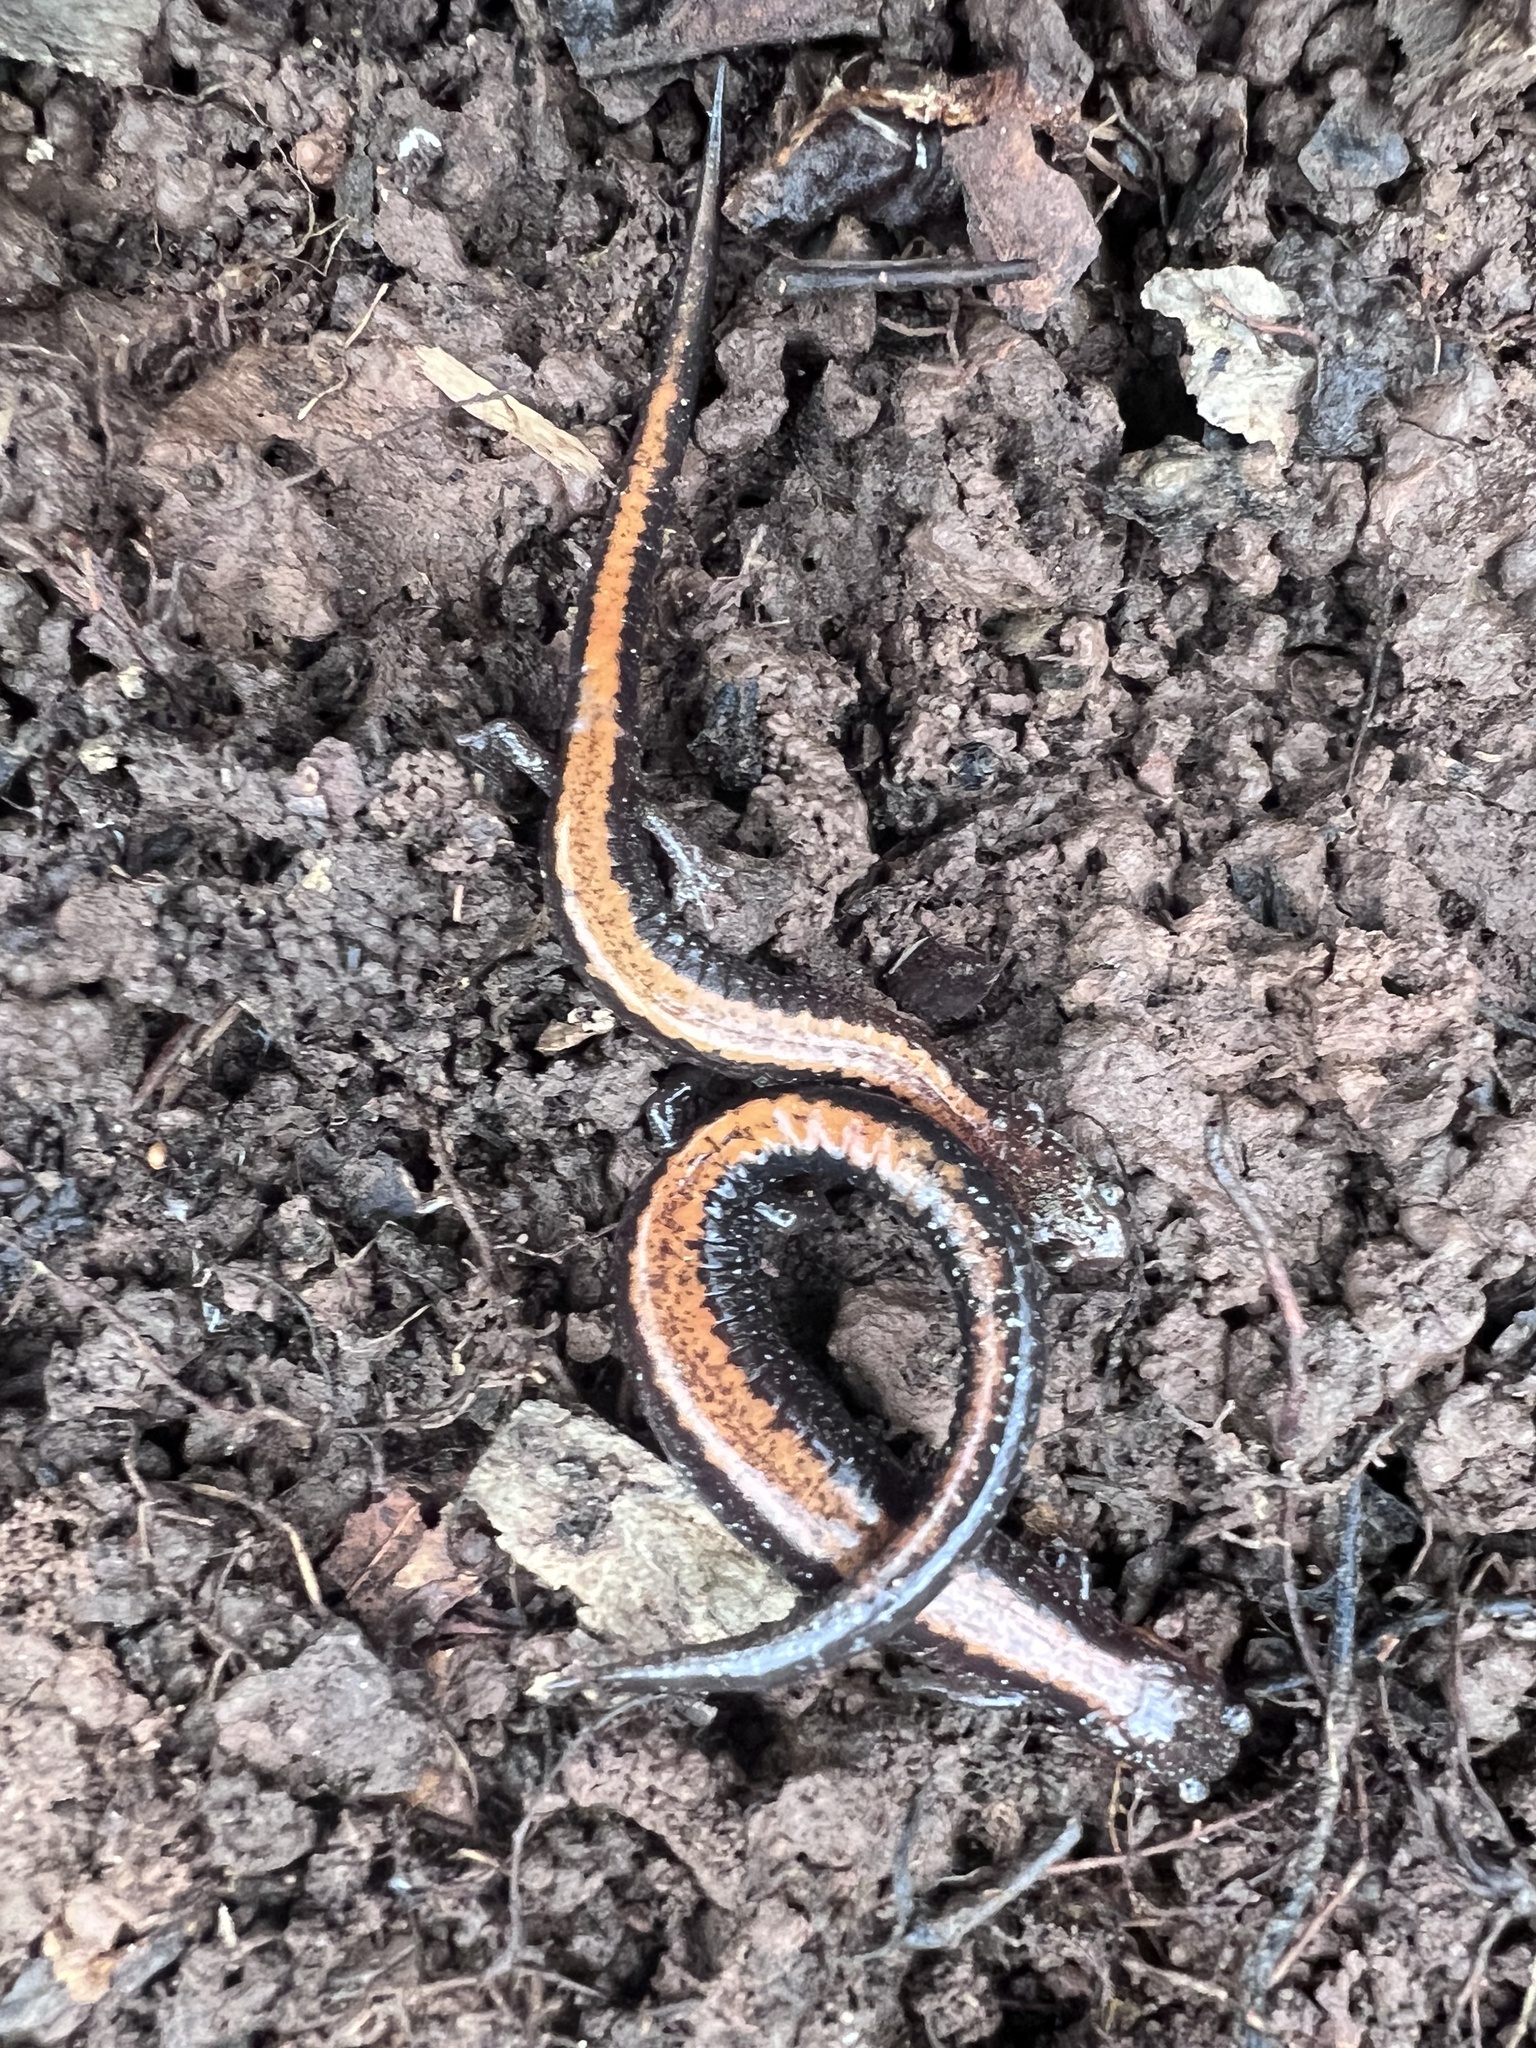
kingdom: Animalia
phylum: Chordata
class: Amphibia
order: Caudata
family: Plethodontidae
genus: Plethodon
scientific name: Plethodon cinereus
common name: Redback salamander
